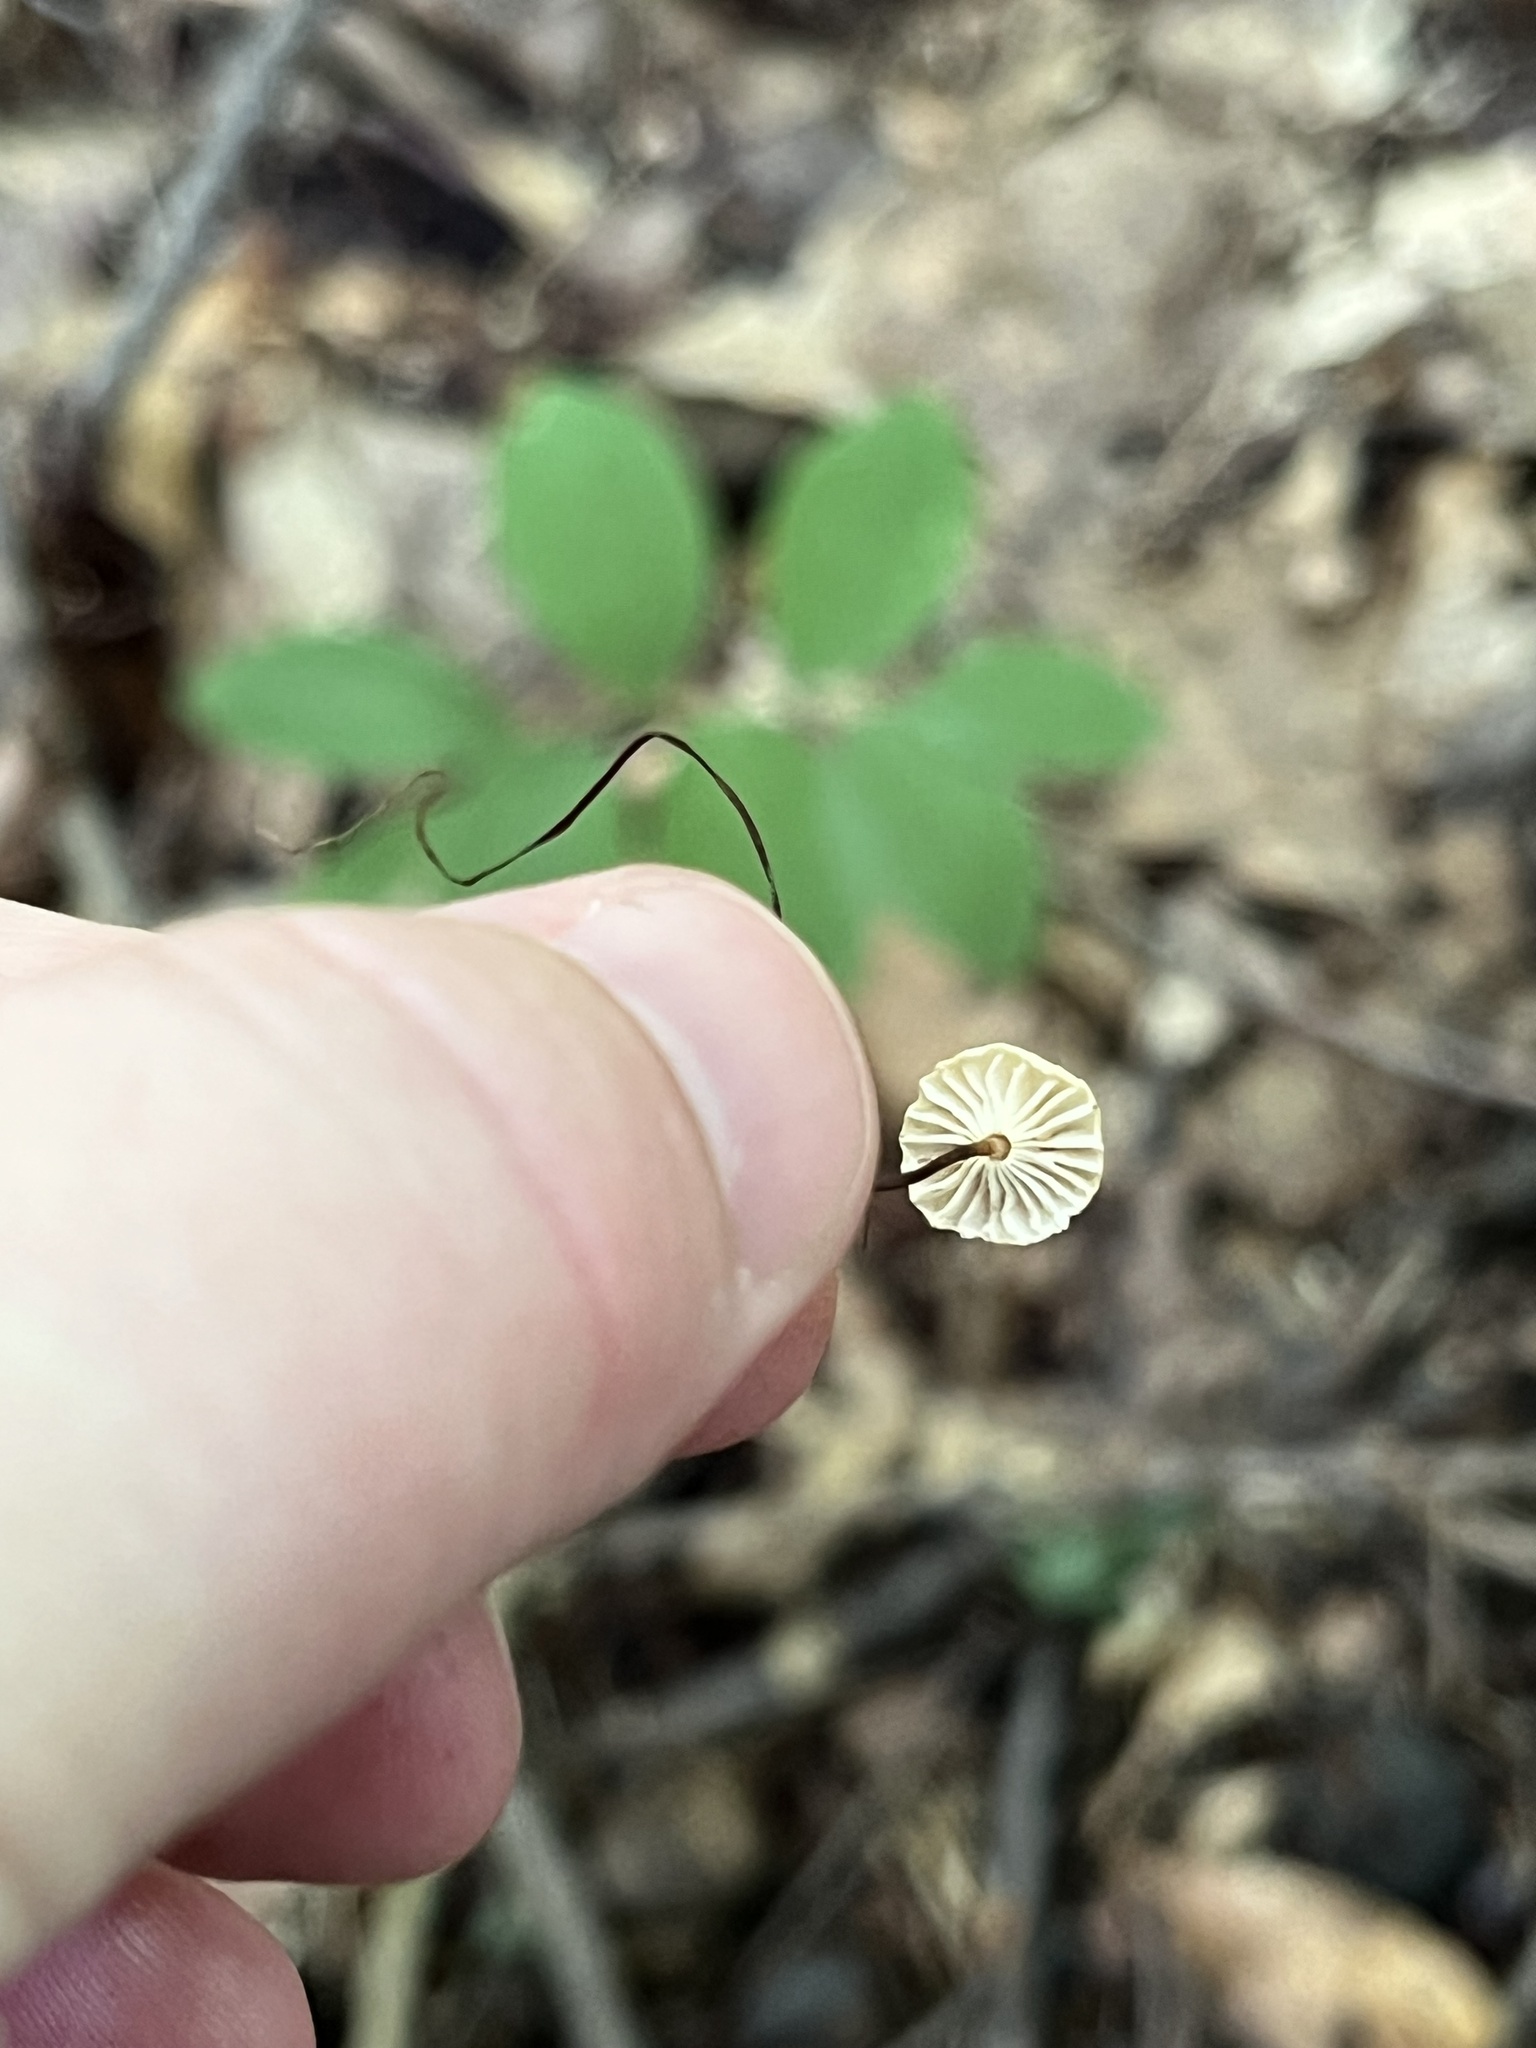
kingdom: Fungi
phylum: Basidiomycota
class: Agaricomycetes
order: Agaricales
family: Marasmiaceae
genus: Marasmius
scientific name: Marasmius rotula
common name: Collared parachute
